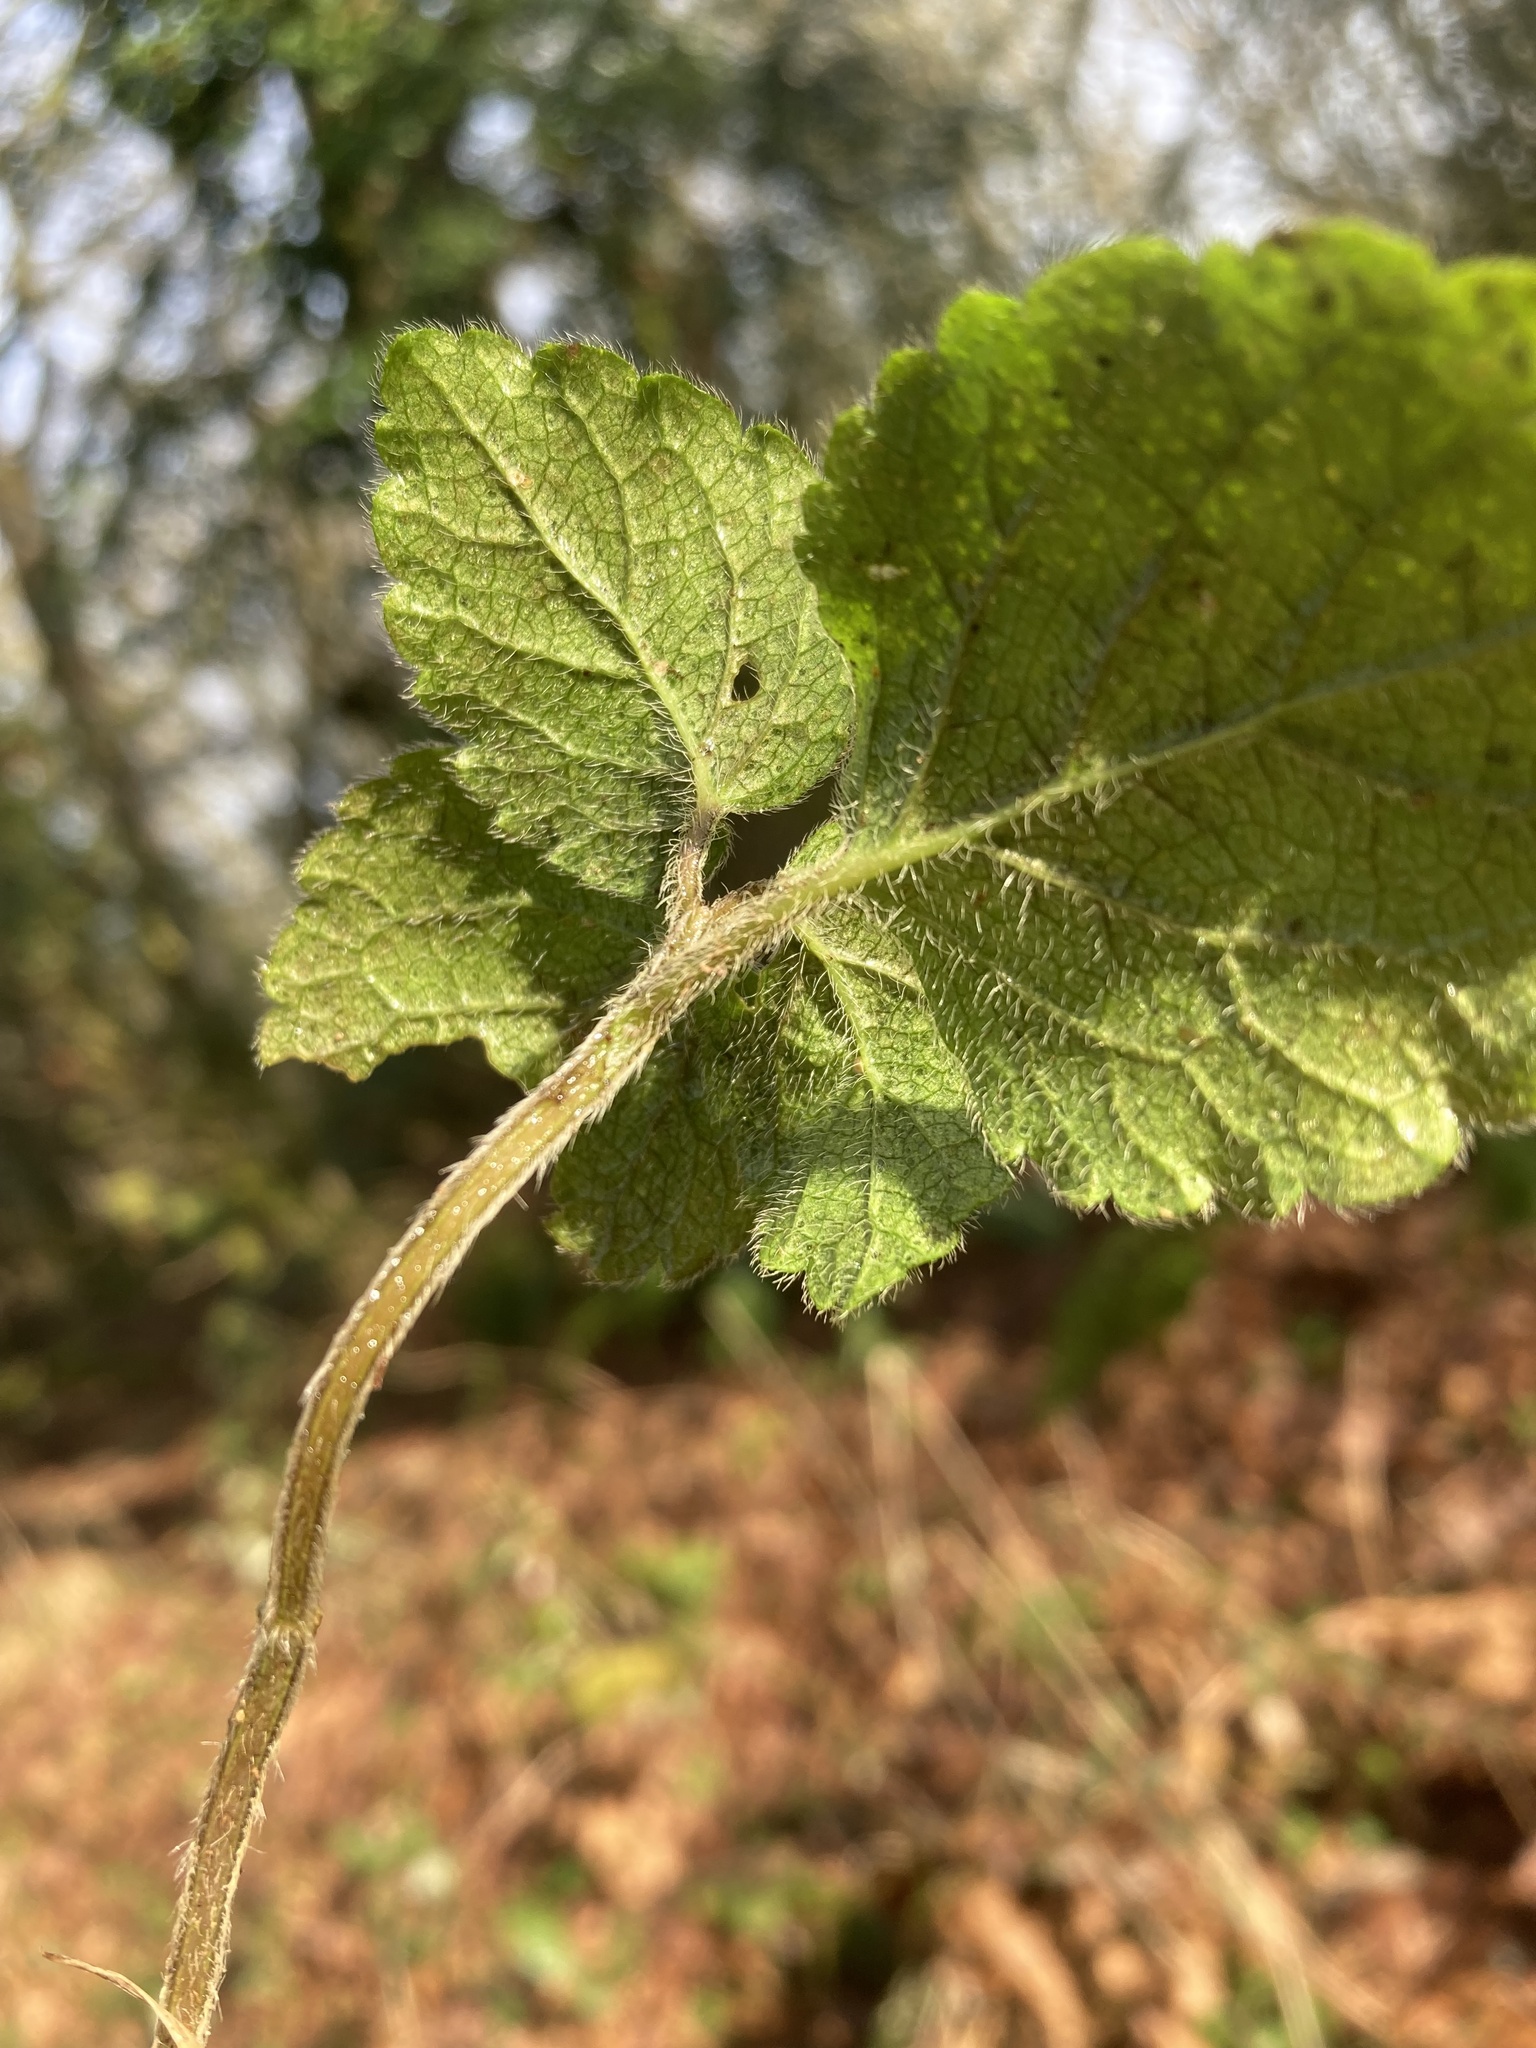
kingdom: Plantae
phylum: Tracheophyta
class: Magnoliopsida
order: Lamiales
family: Lamiaceae
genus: Lamium
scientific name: Lamium galeobdolon
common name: Yellow archangel
